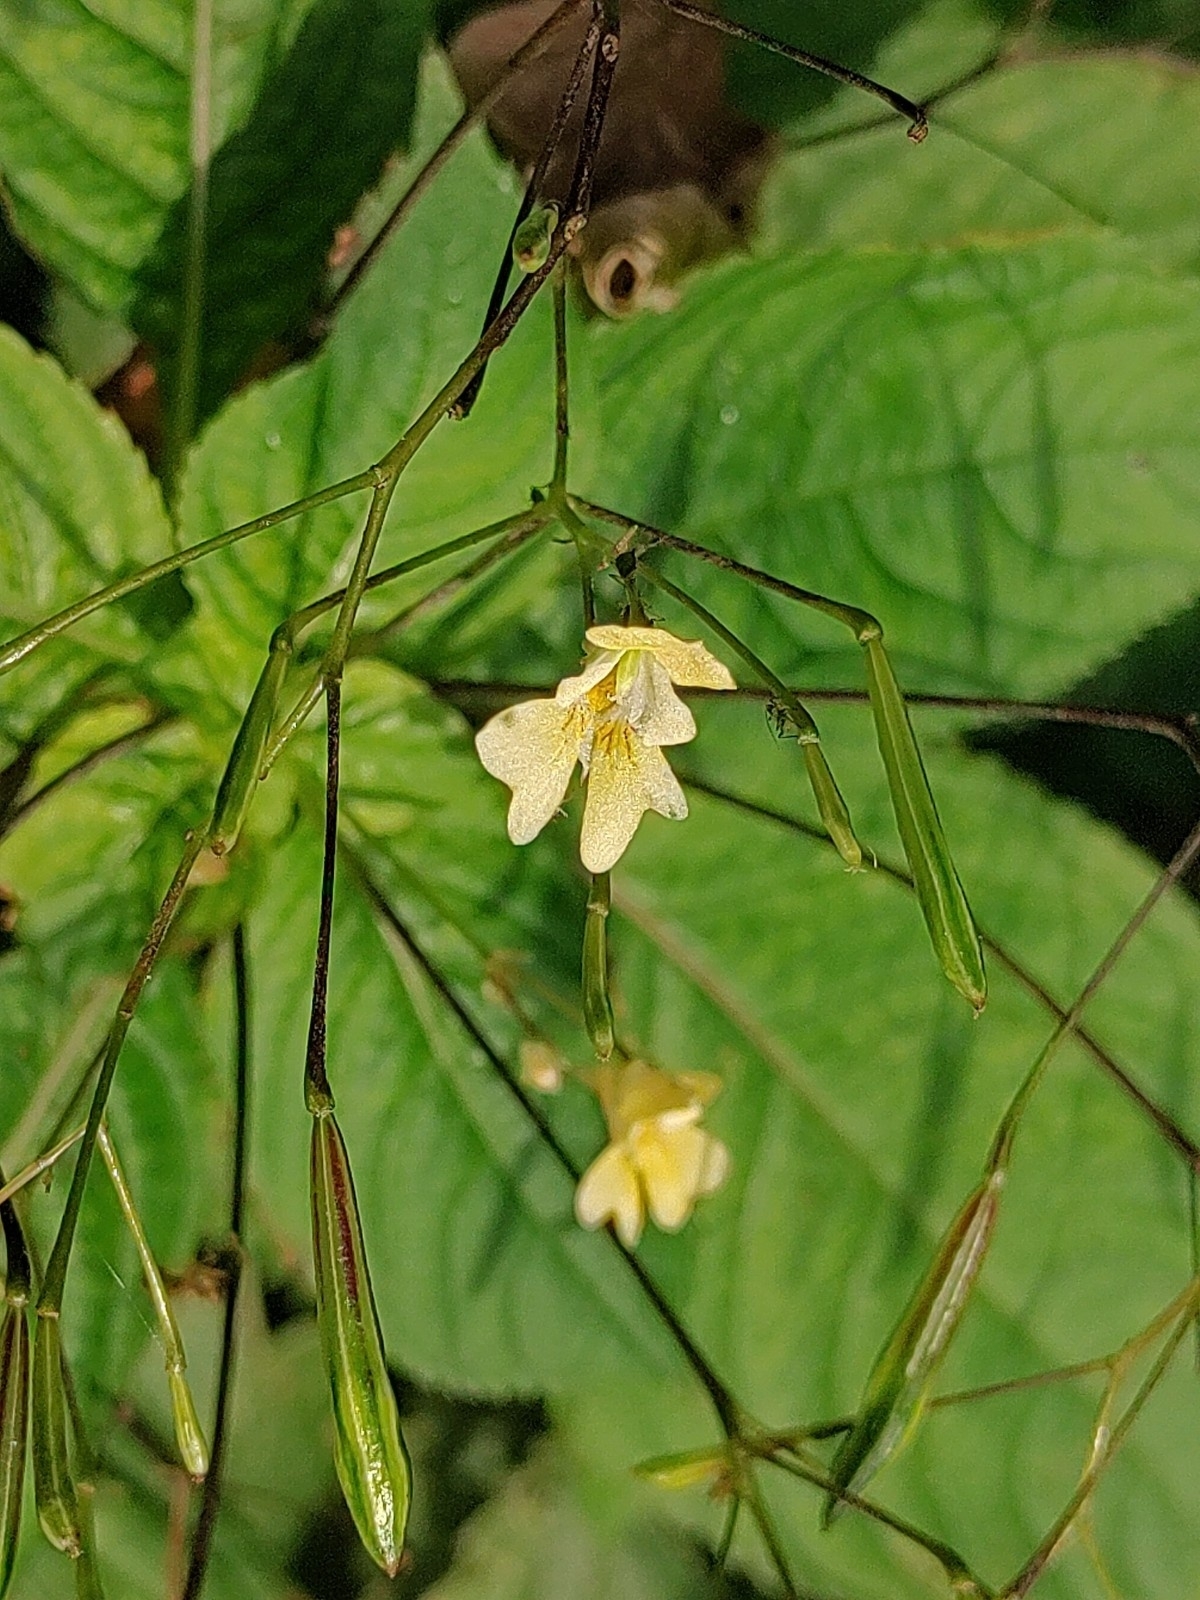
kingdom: Plantae
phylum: Tracheophyta
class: Magnoliopsida
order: Ericales
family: Balsaminaceae
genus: Impatiens
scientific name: Impatiens parviflora
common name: Small balsam
